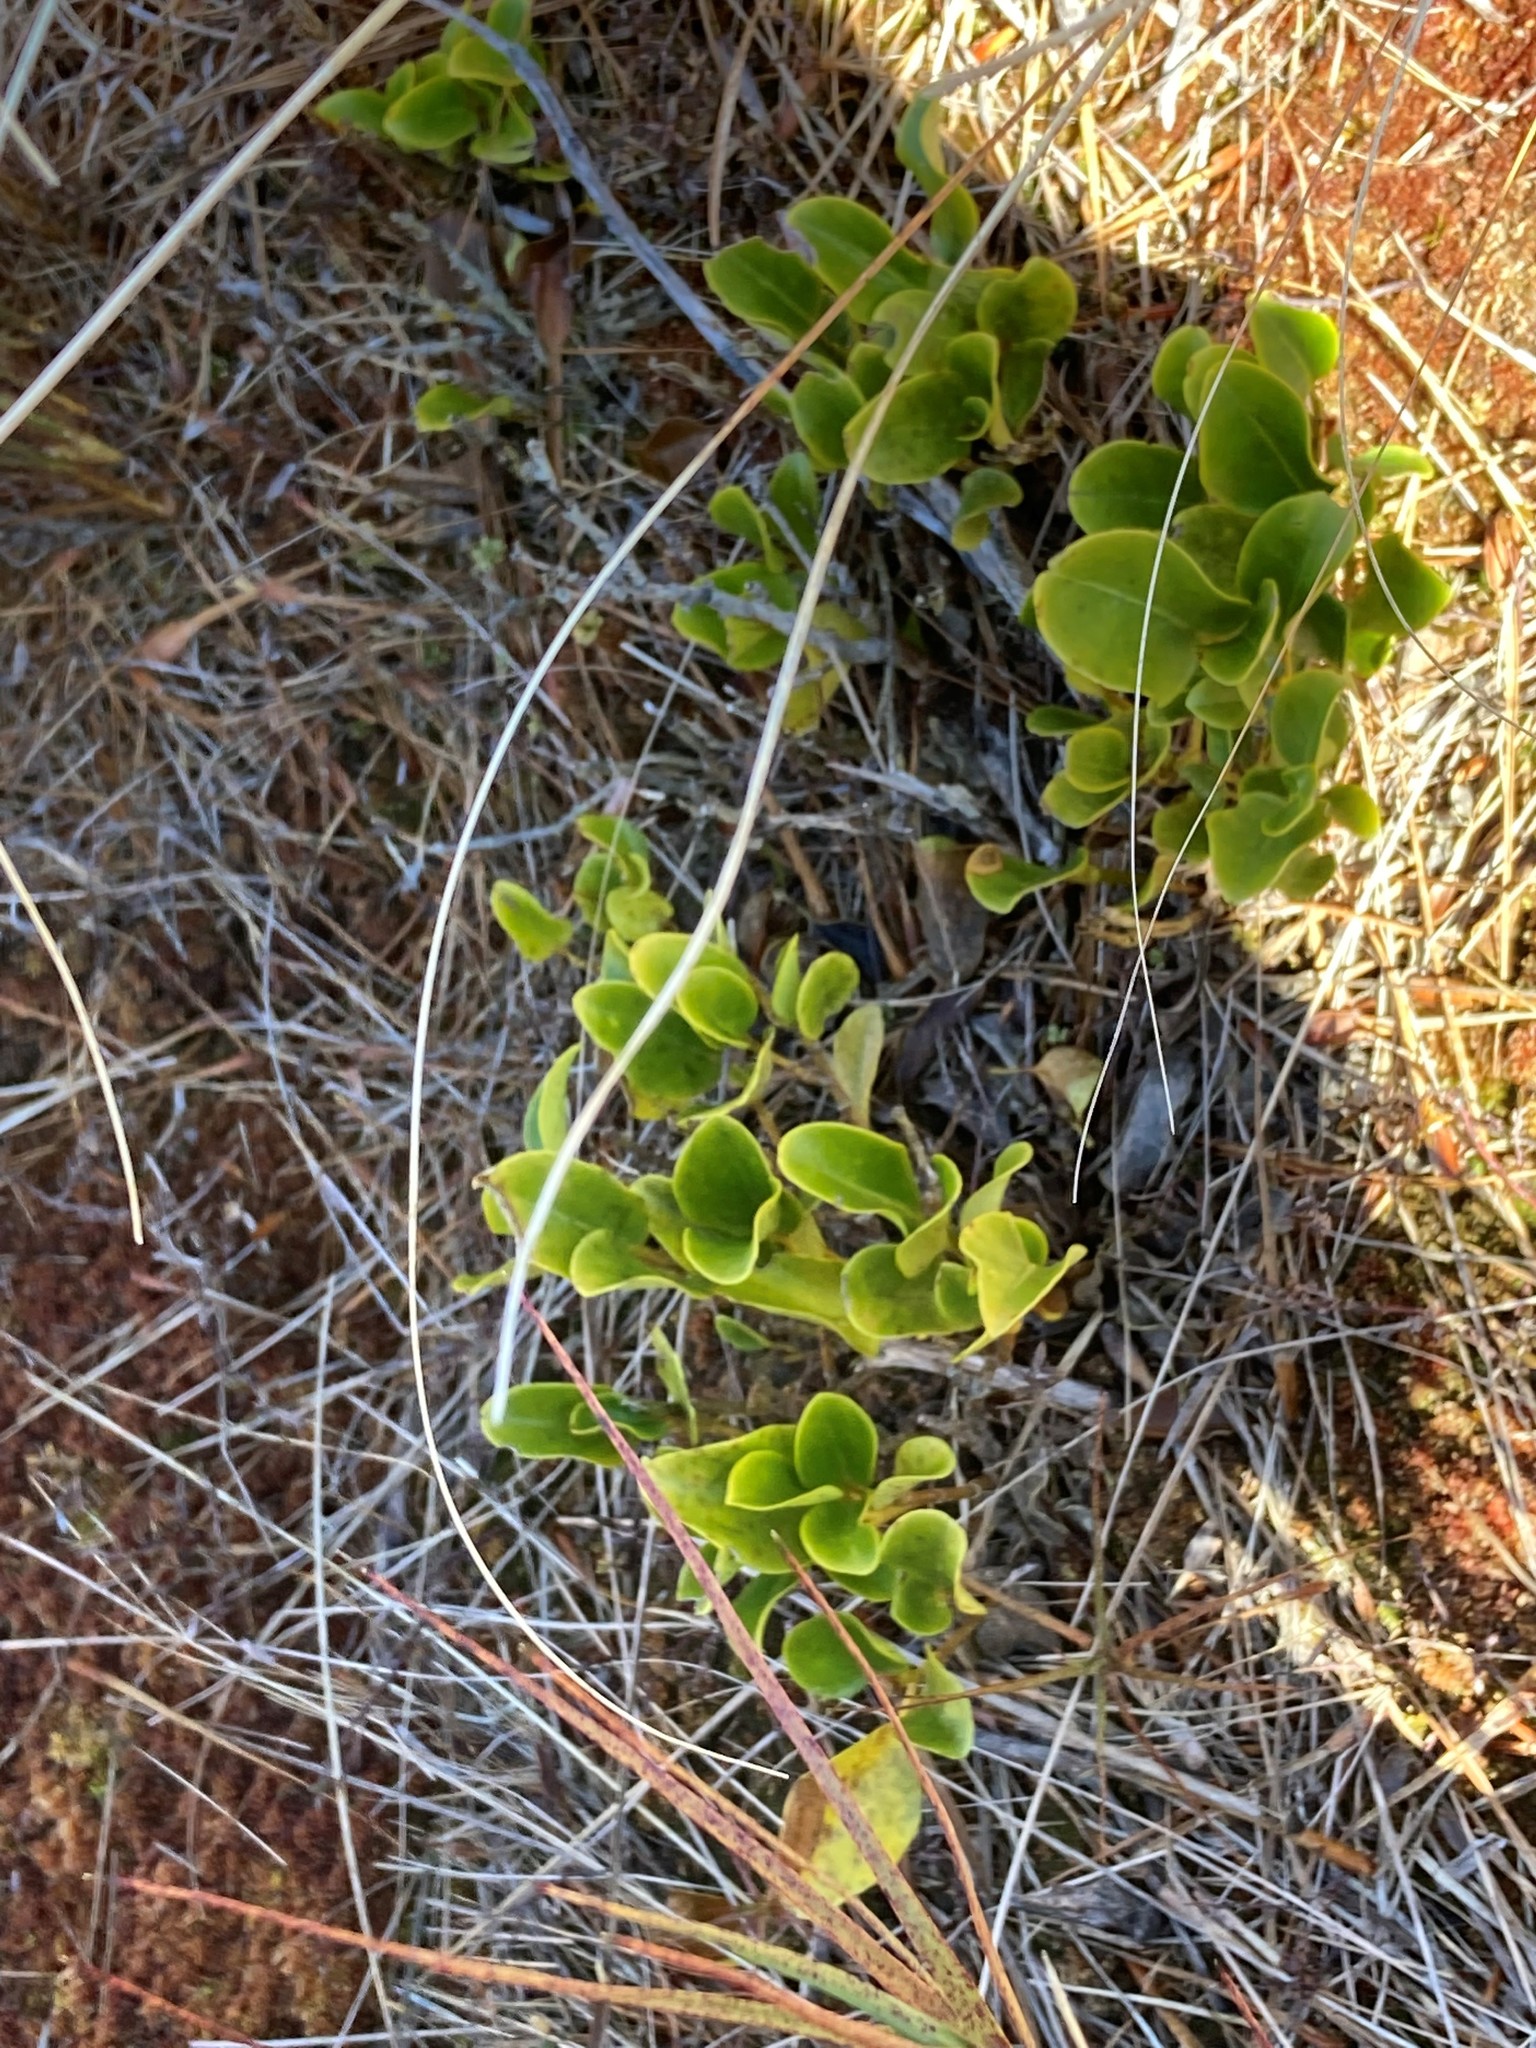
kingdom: Plantae
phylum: Tracheophyta
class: Magnoliopsida
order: Apiales
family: Griseliniaceae
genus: Griselinia
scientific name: Griselinia littoralis
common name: New zealand broadleaf
